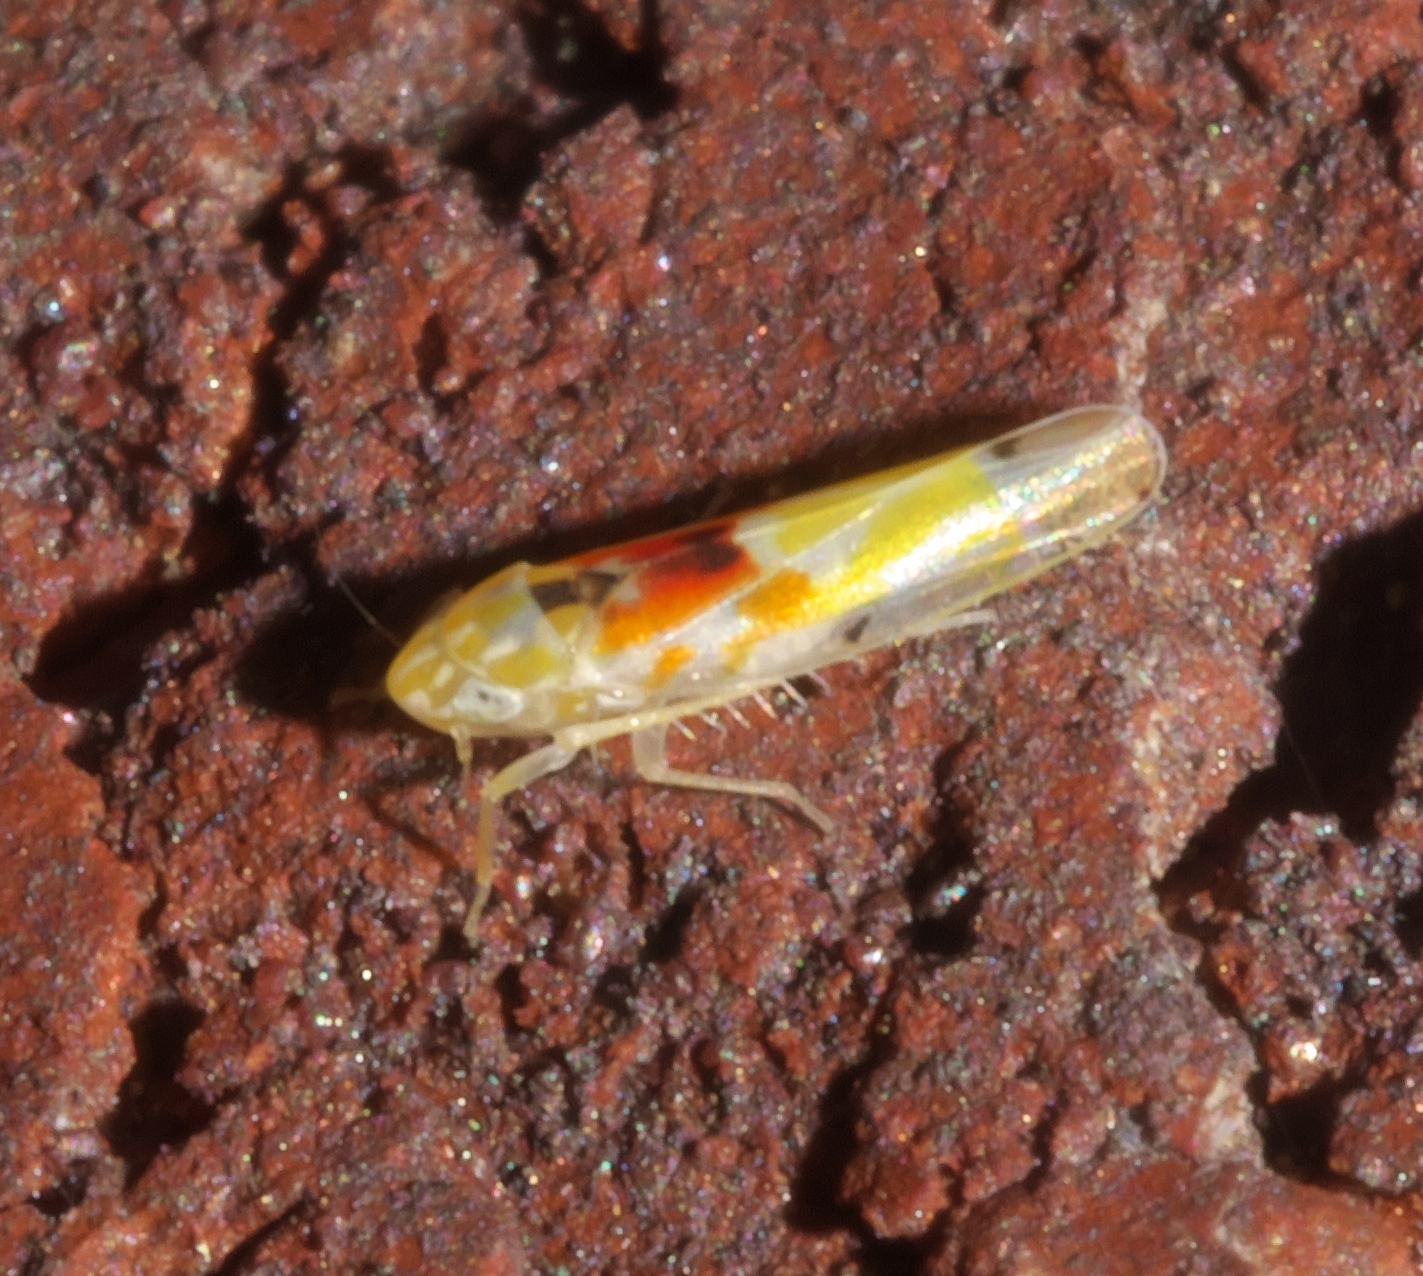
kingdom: Animalia
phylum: Arthropoda
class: Insecta
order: Hemiptera
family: Cicadellidae
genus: Erythroneura
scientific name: Erythroneura octonotata
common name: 8-spotted leafhopper
